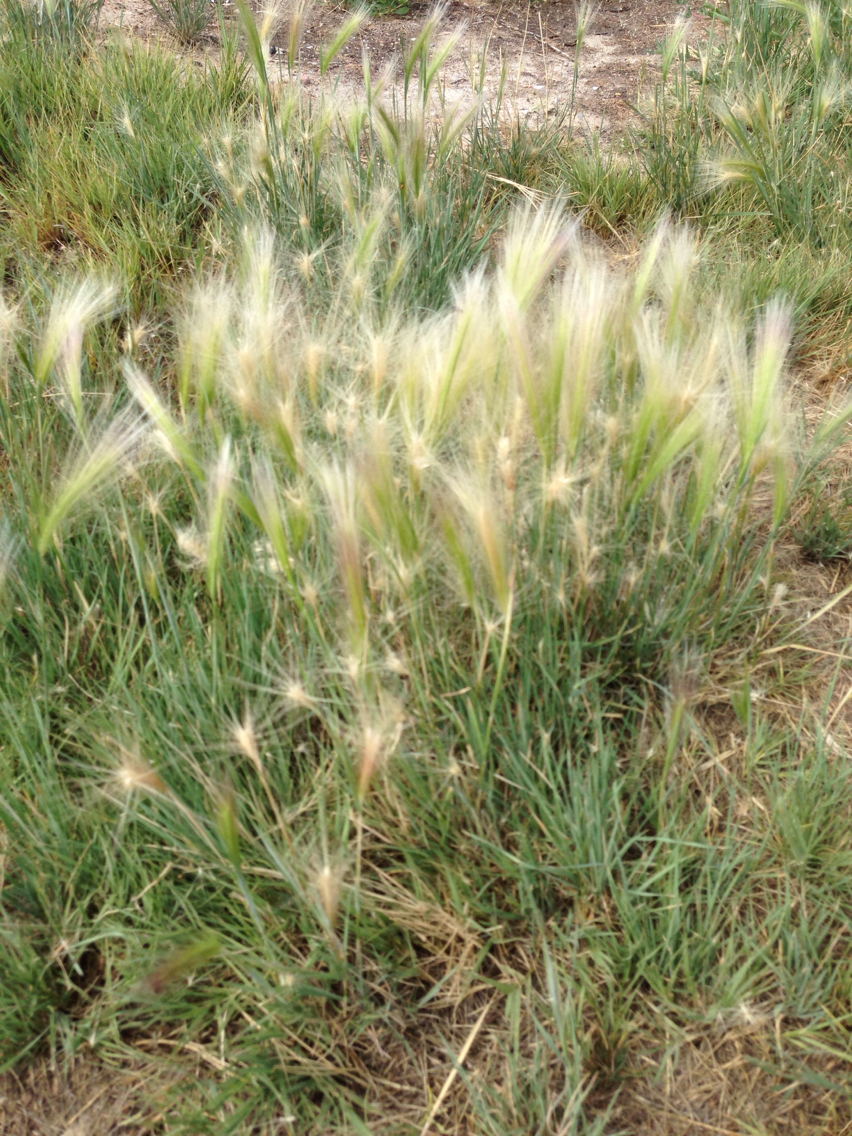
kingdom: Plantae
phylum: Tracheophyta
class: Liliopsida
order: Poales
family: Poaceae
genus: Hordeum
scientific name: Hordeum jubatum
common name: Foxtail barley
